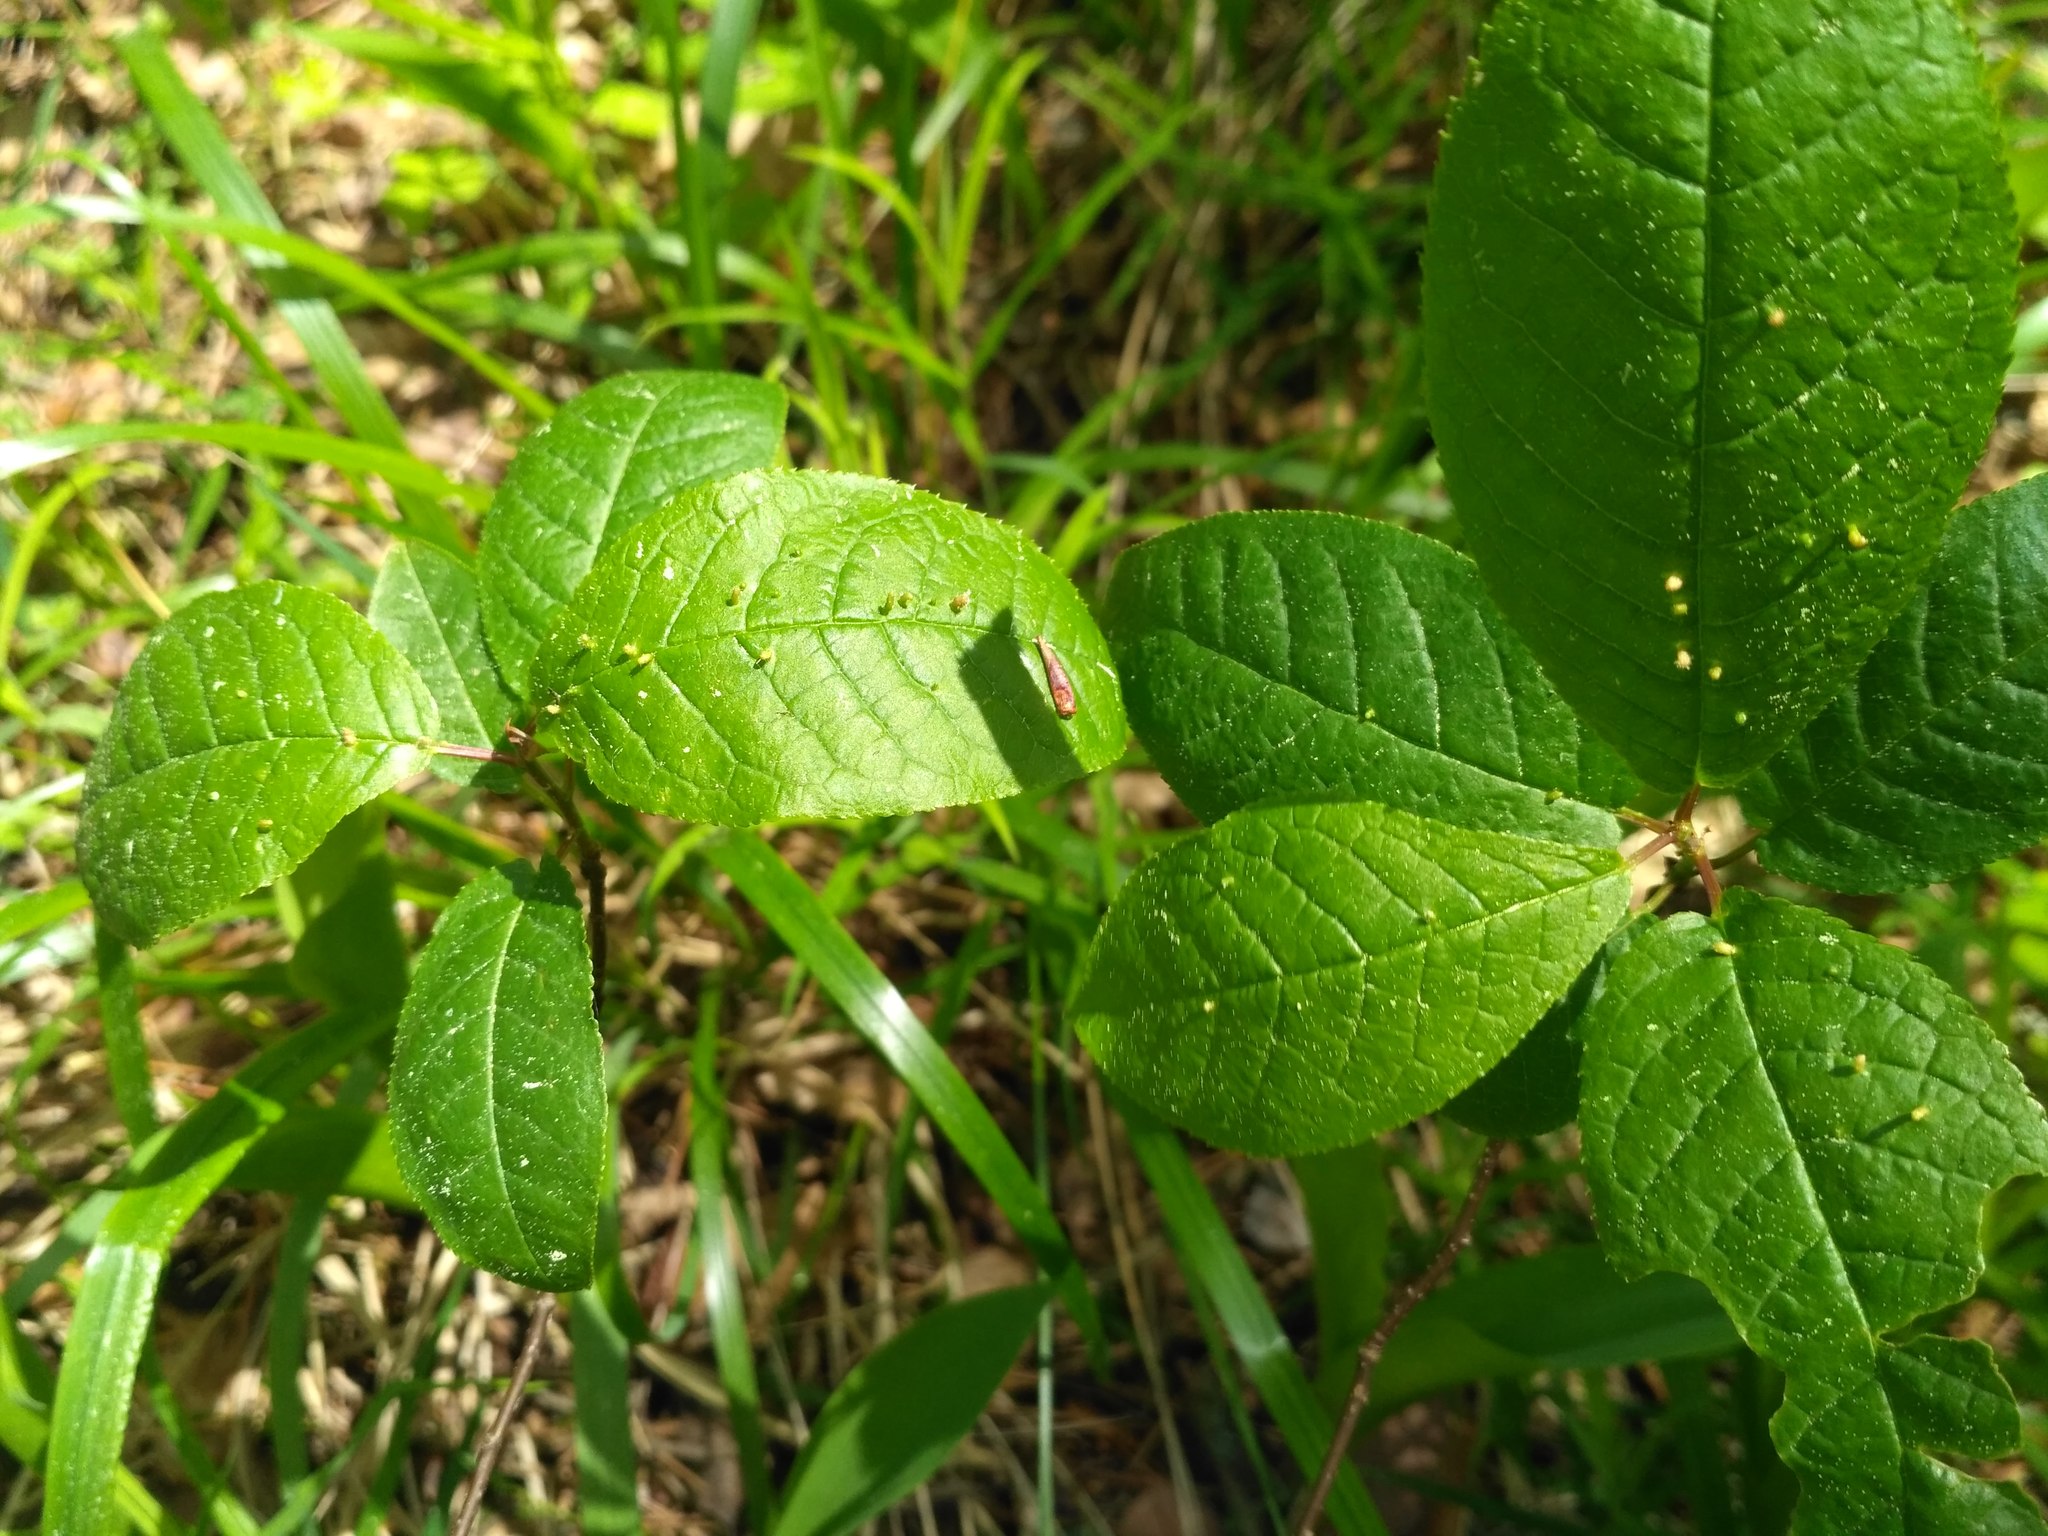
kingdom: Plantae
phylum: Tracheophyta
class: Magnoliopsida
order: Rosales
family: Rosaceae
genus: Prunus
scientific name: Prunus padus
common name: Bird cherry
